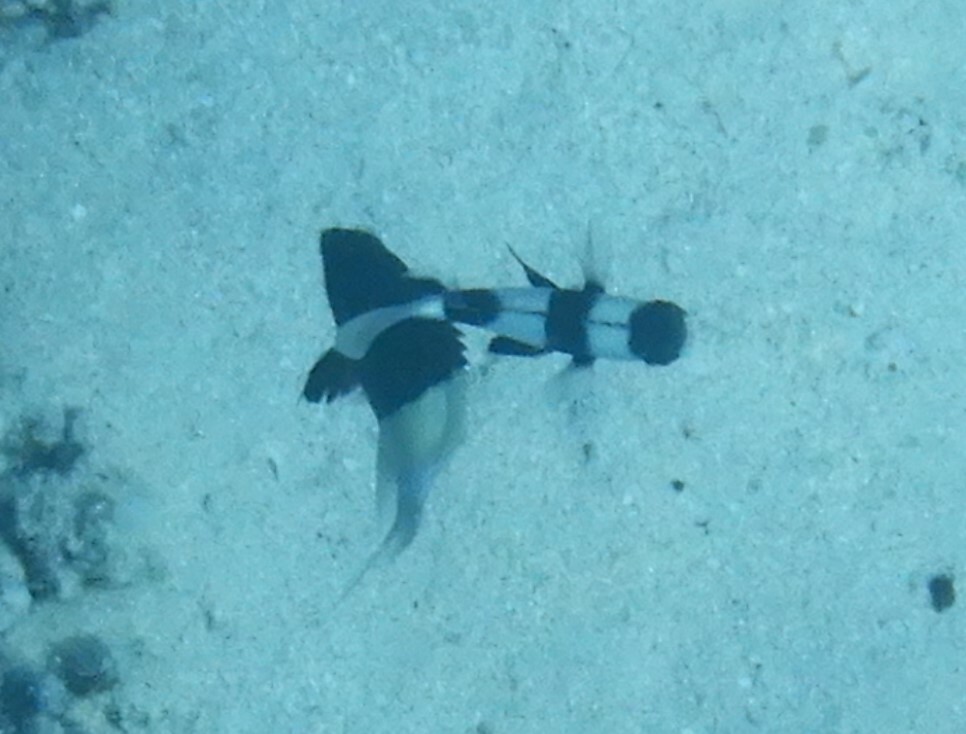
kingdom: Animalia
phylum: Chordata
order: Perciformes
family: Pomacentridae
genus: Dascyllus
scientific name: Dascyllus abudafur
